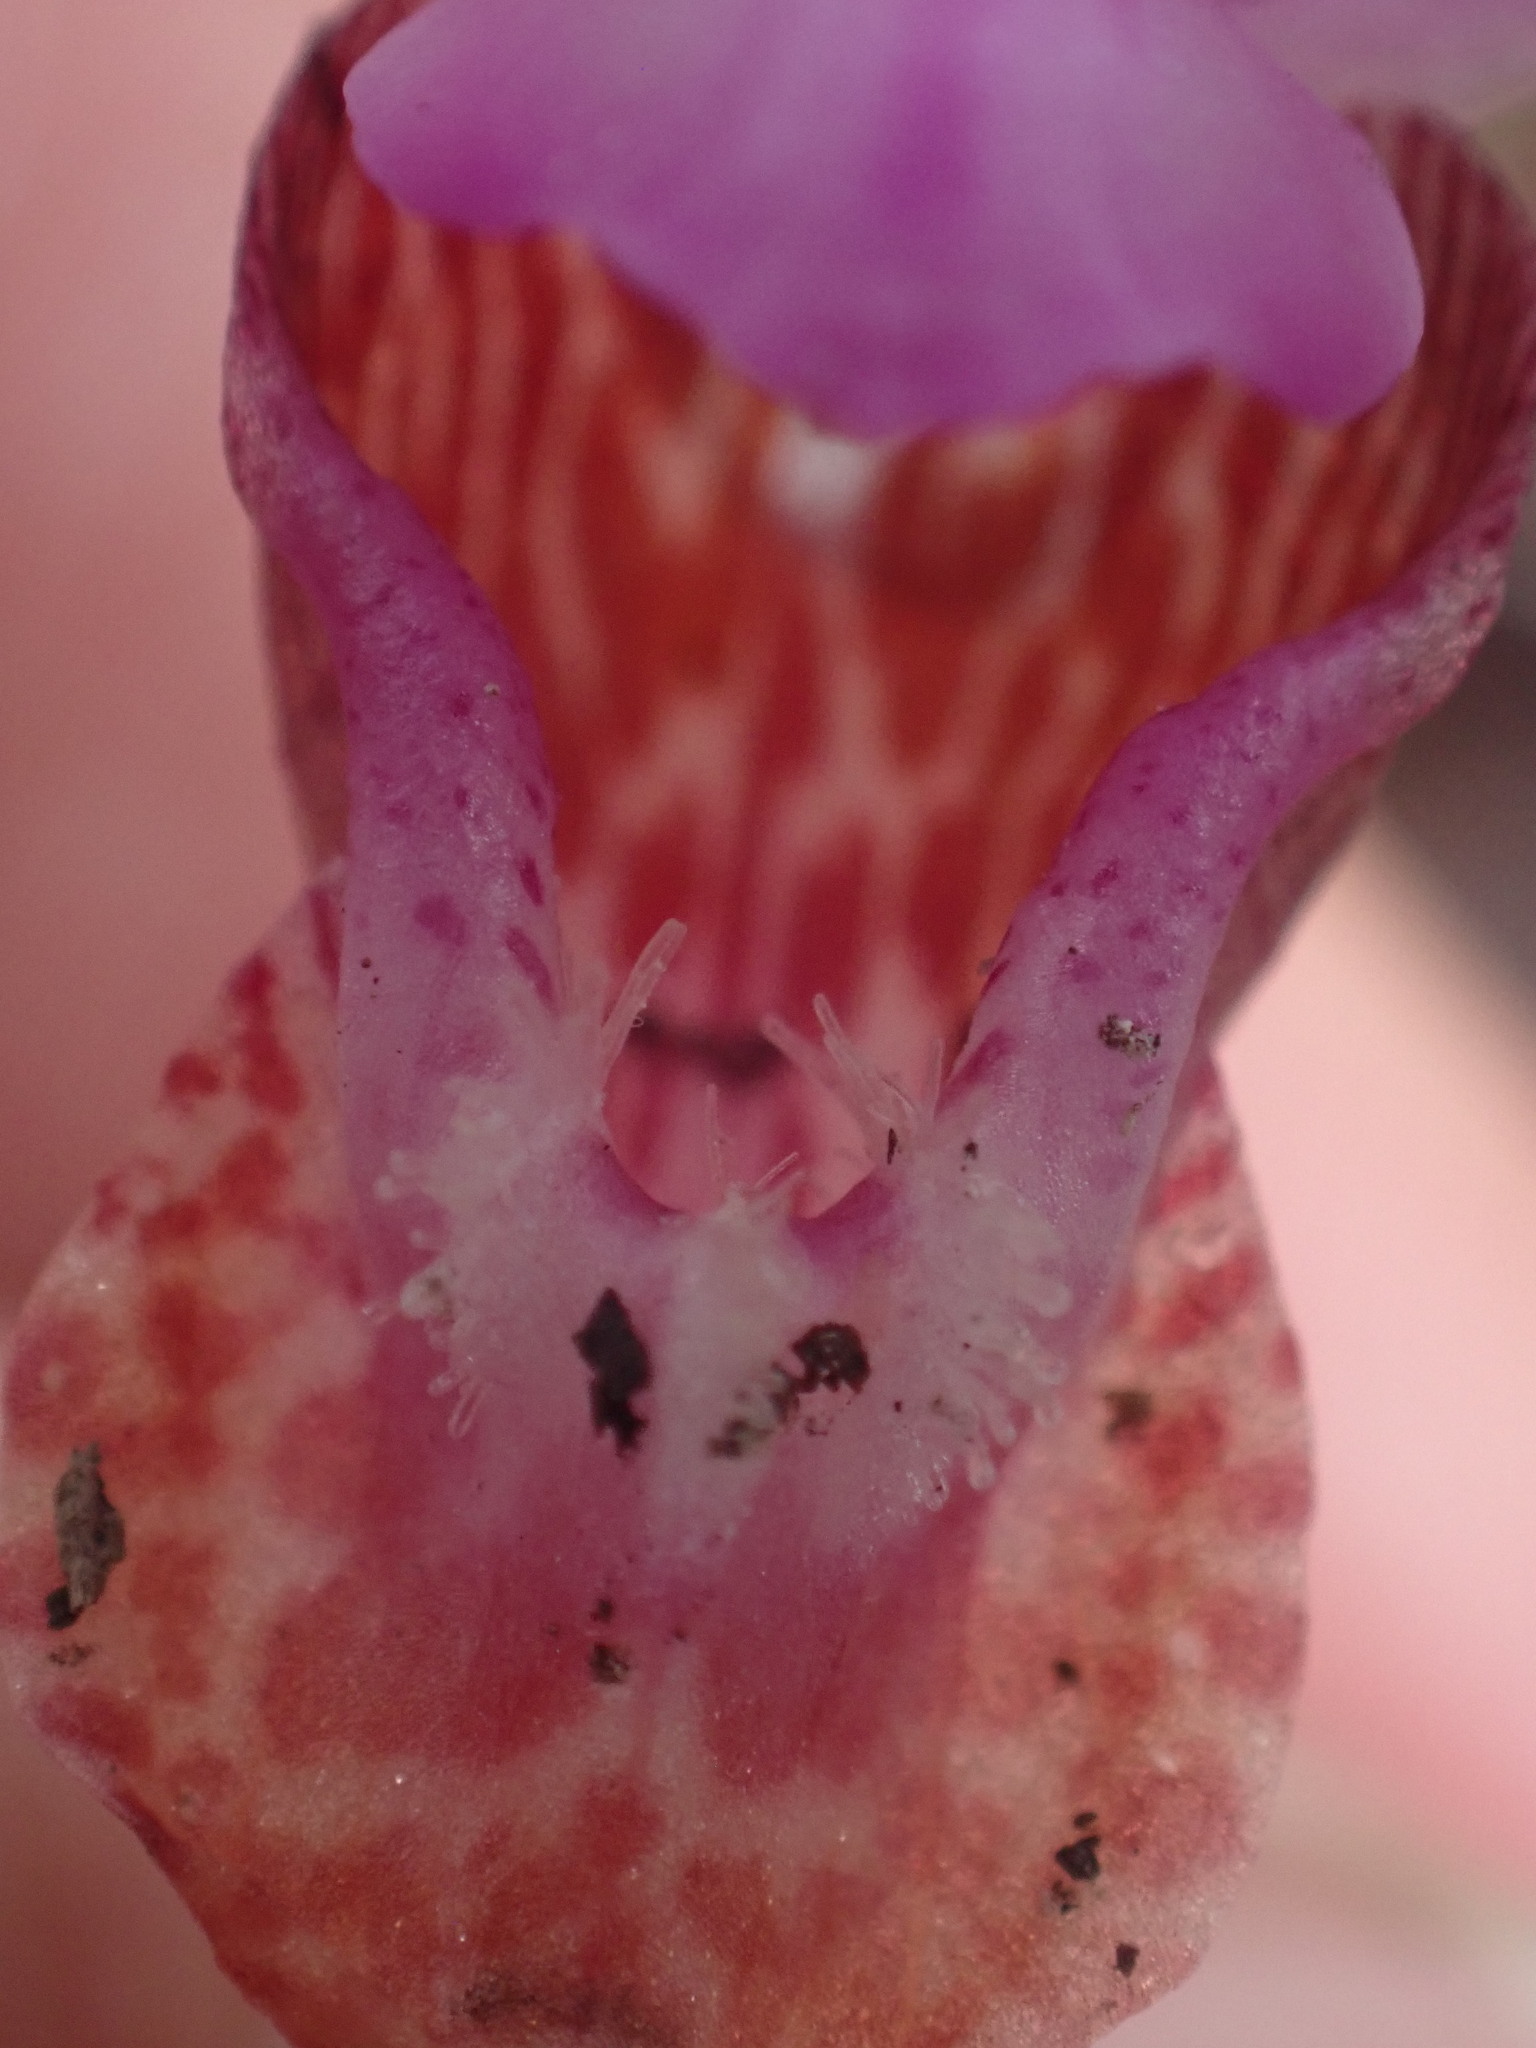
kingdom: Plantae
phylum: Tracheophyta
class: Liliopsida
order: Asparagales
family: Orchidaceae
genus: Calypso
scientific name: Calypso bulbosa
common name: Calypso
